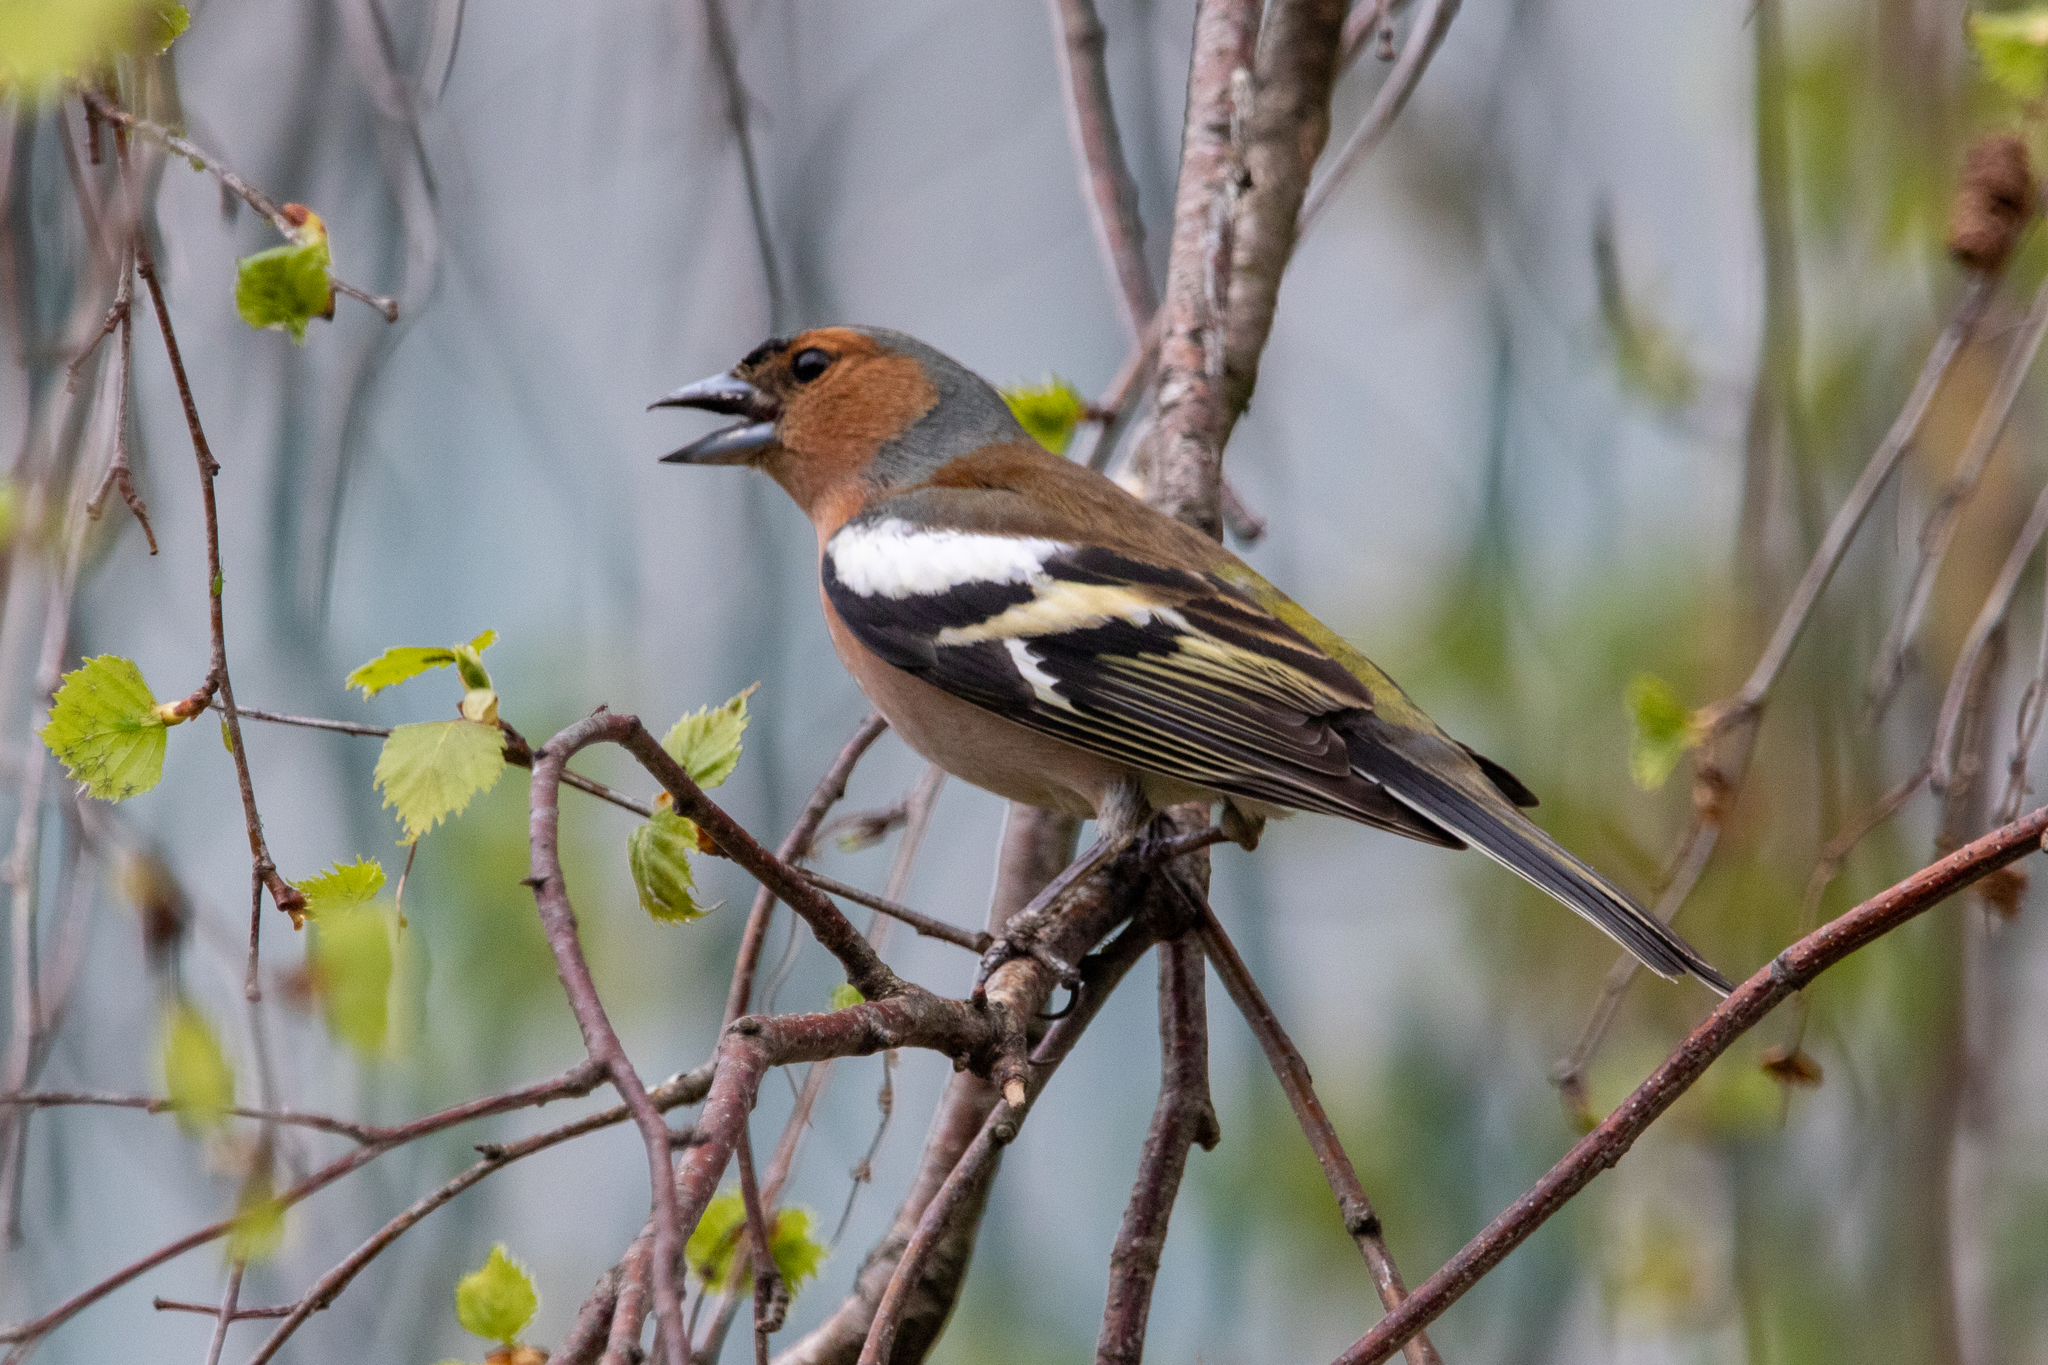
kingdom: Animalia
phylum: Chordata
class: Aves
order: Passeriformes
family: Fringillidae
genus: Fringilla
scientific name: Fringilla coelebs
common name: Common chaffinch
